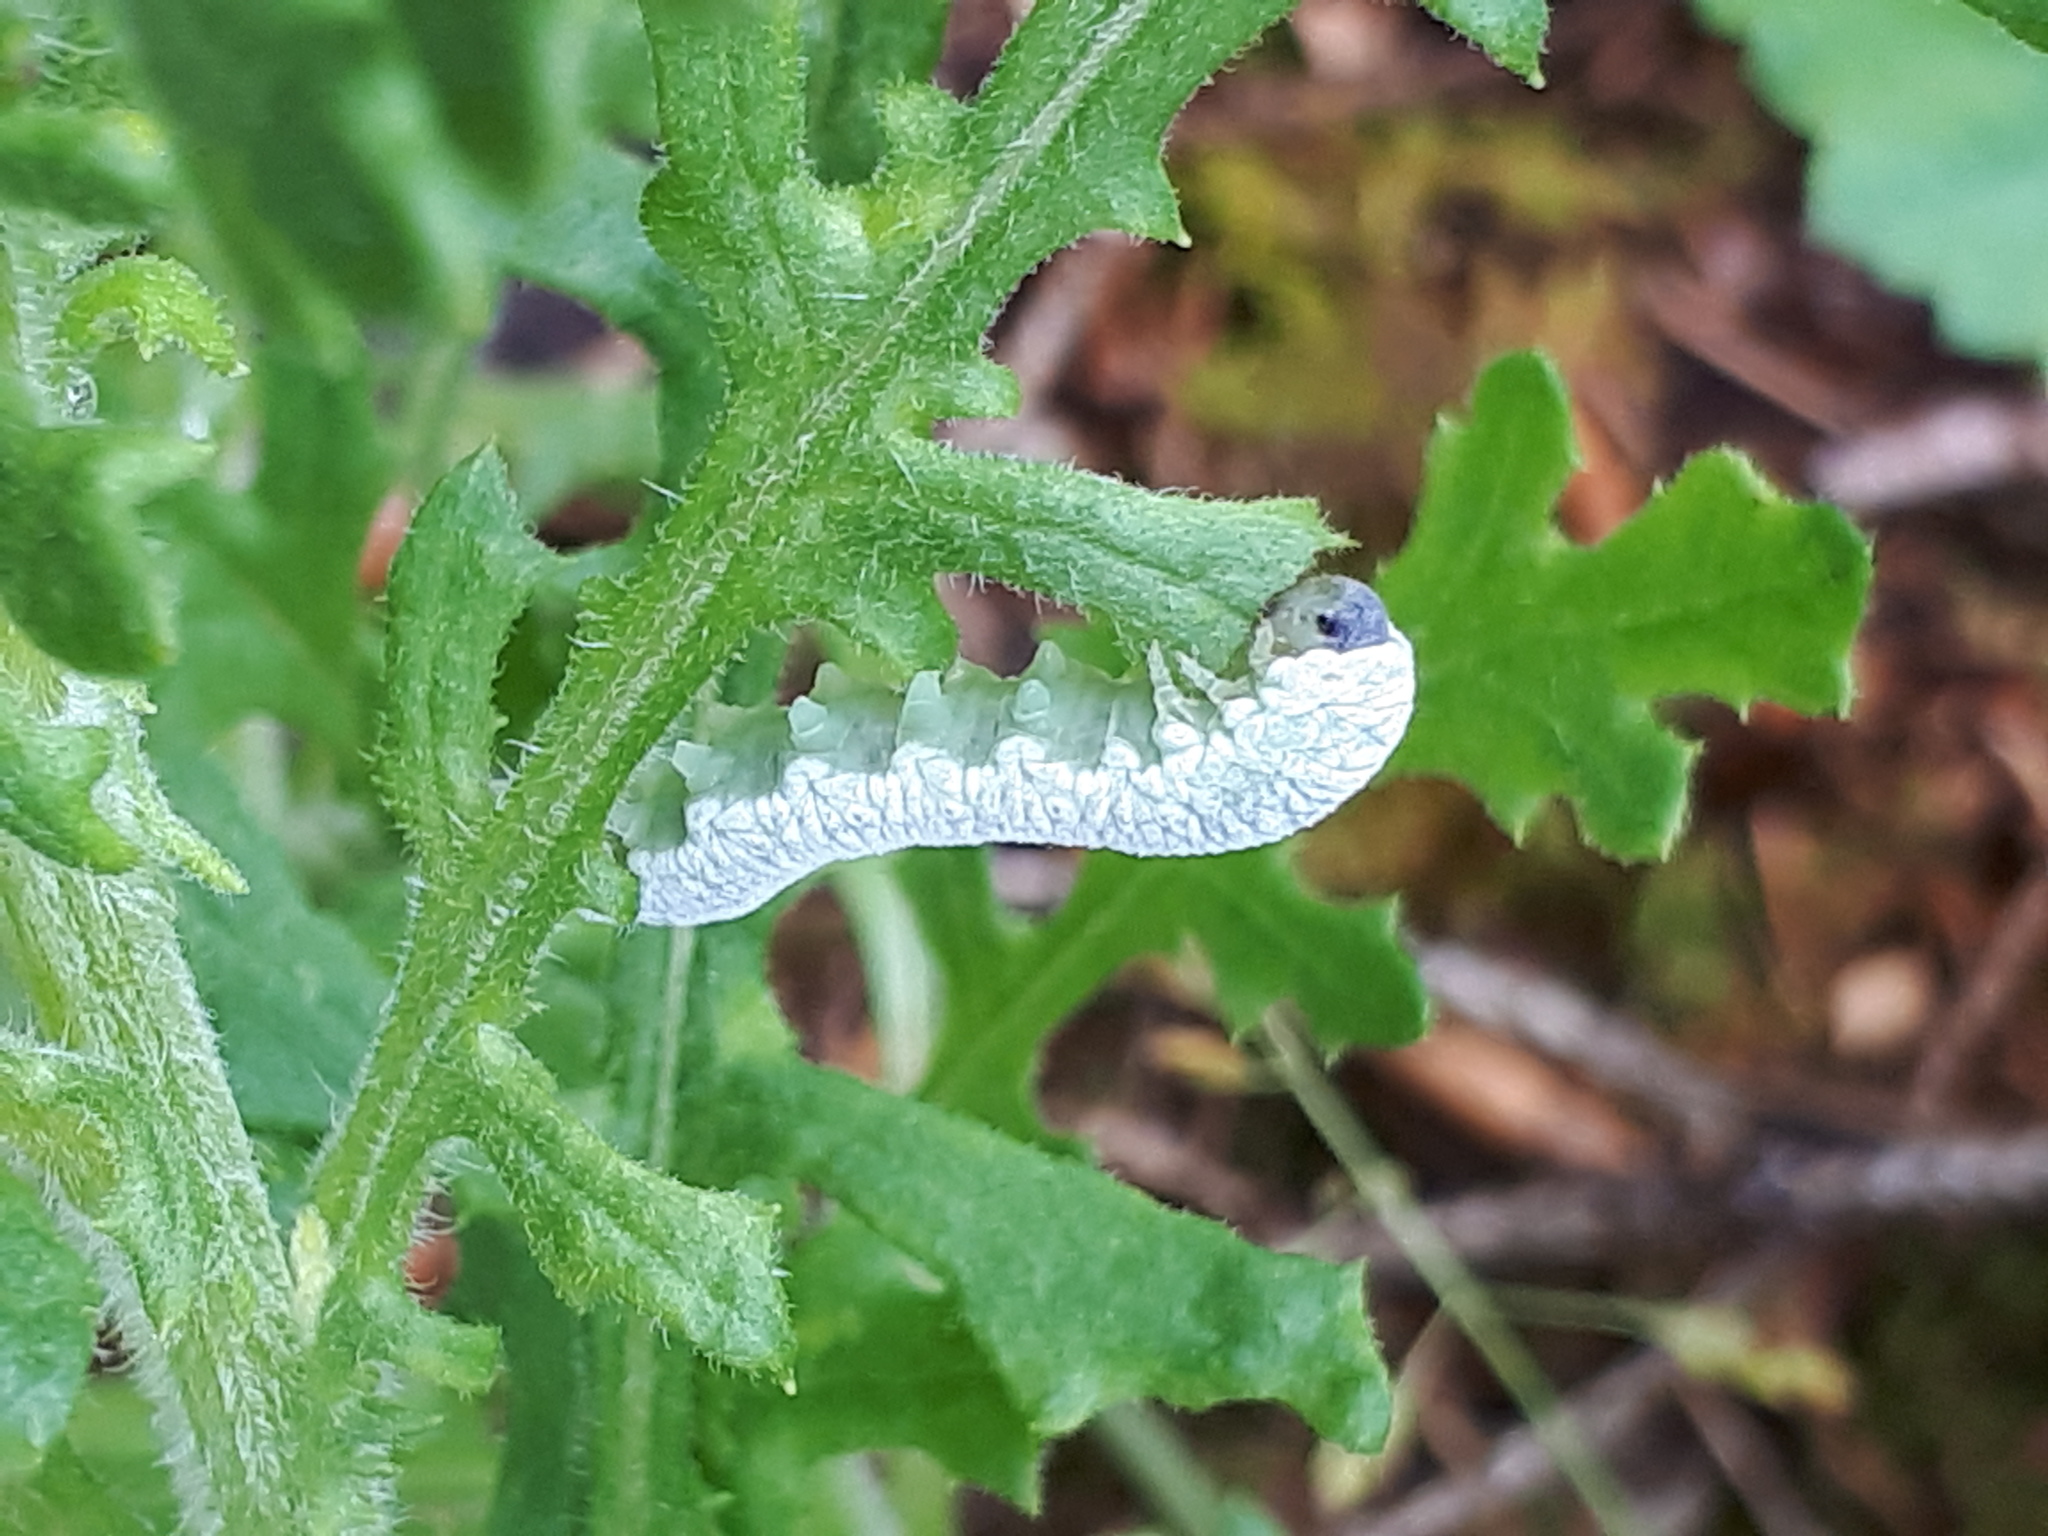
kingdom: Animalia
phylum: Arthropoda
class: Insecta
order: Hymenoptera
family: Tenthredinidae
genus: Tenthredo
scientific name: Tenthredo rubricoxis
